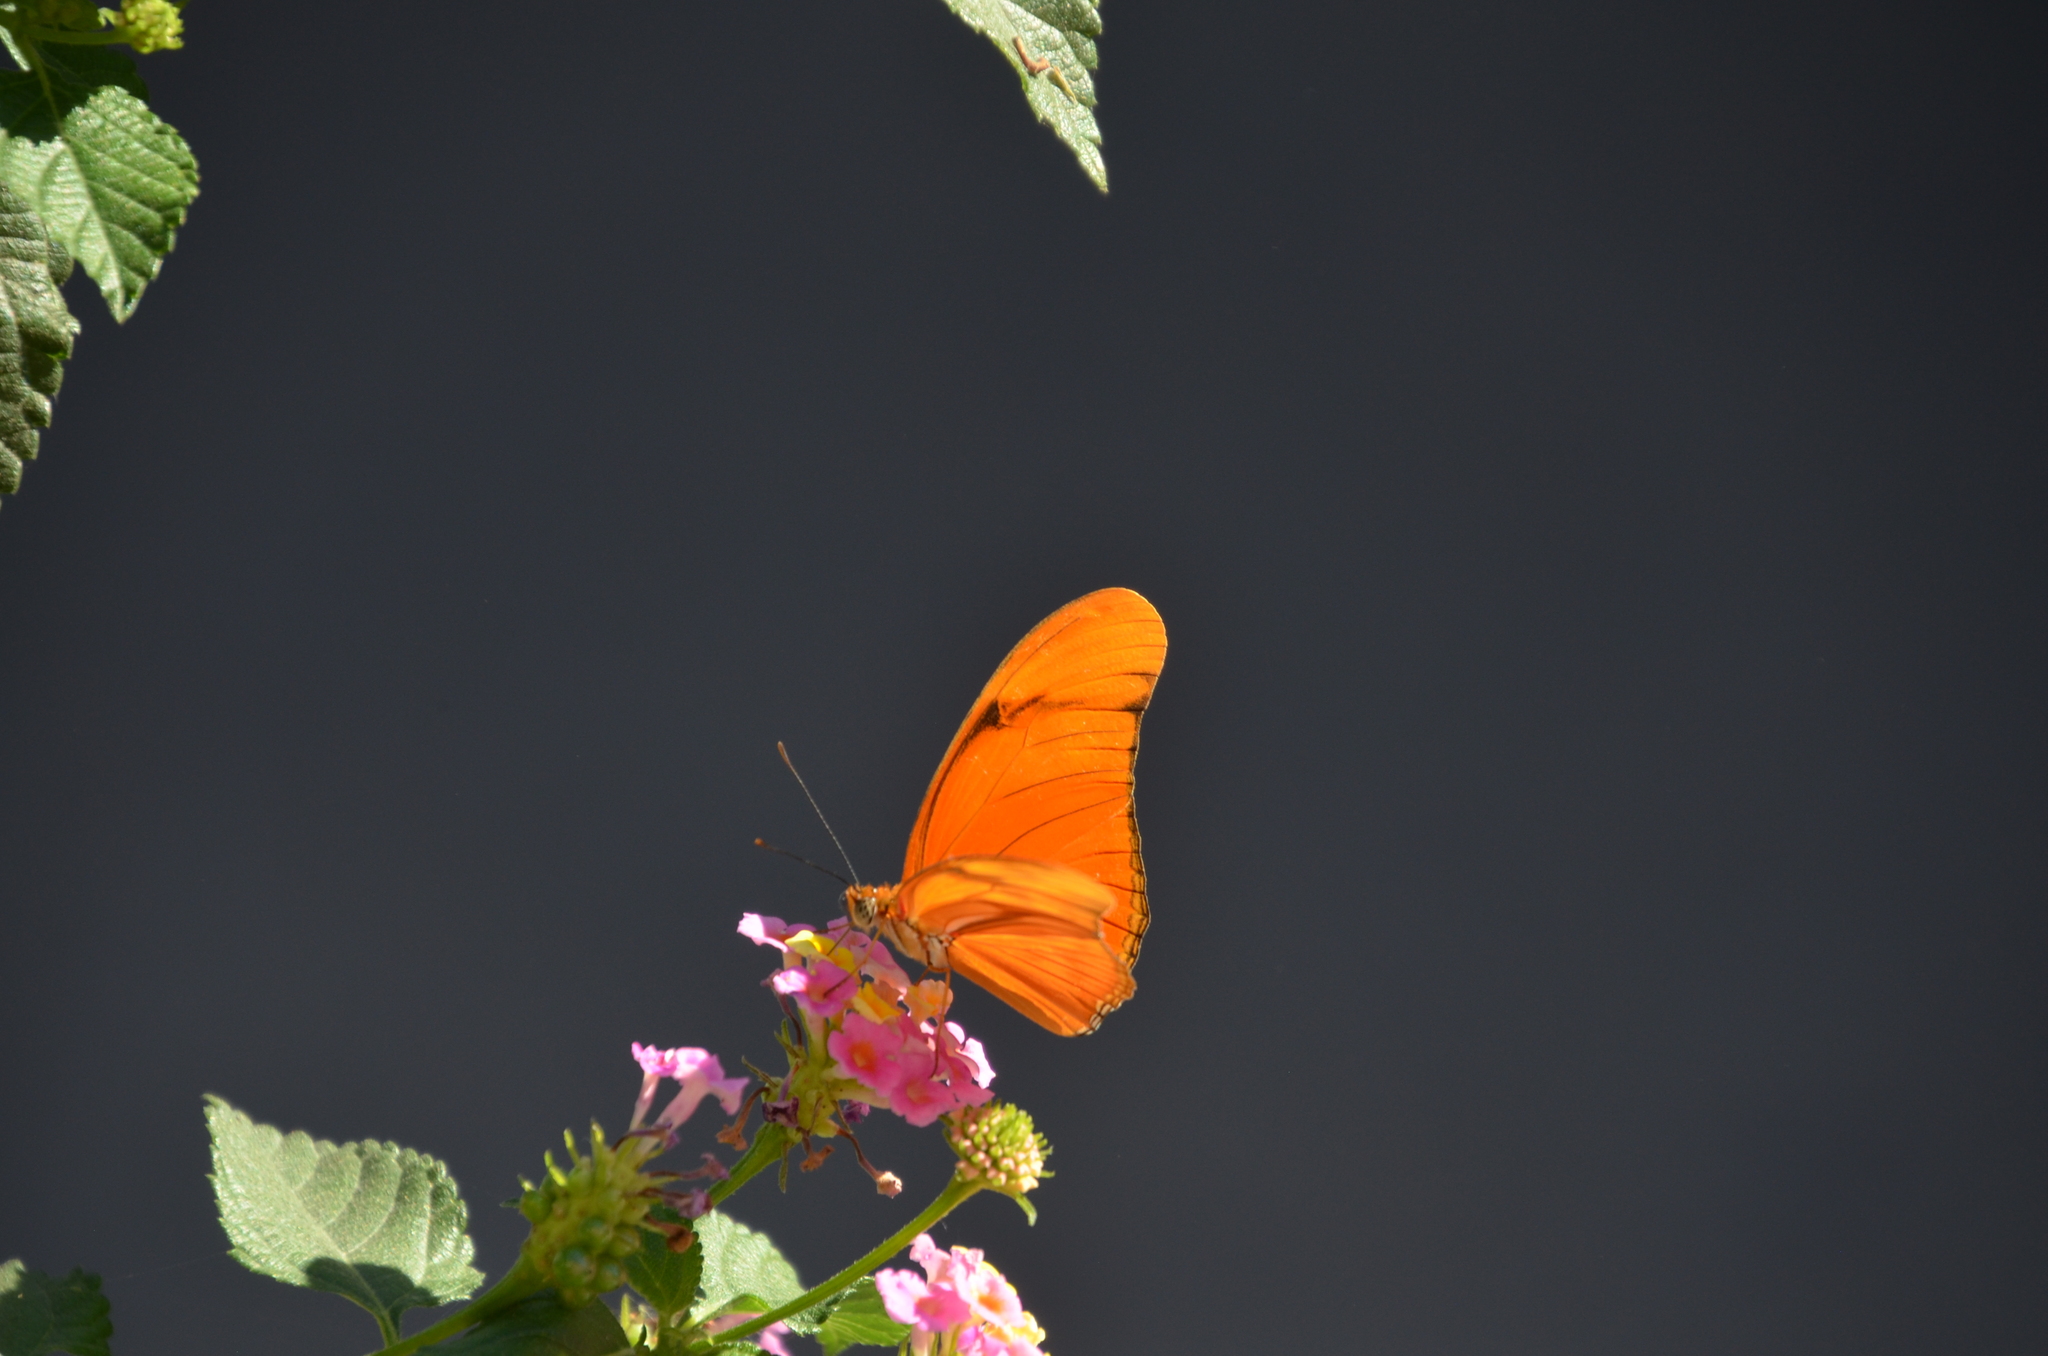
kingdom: Animalia
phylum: Arthropoda
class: Insecta
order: Lepidoptera
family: Nymphalidae
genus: Dryas
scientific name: Dryas iulia
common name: Flambeau
